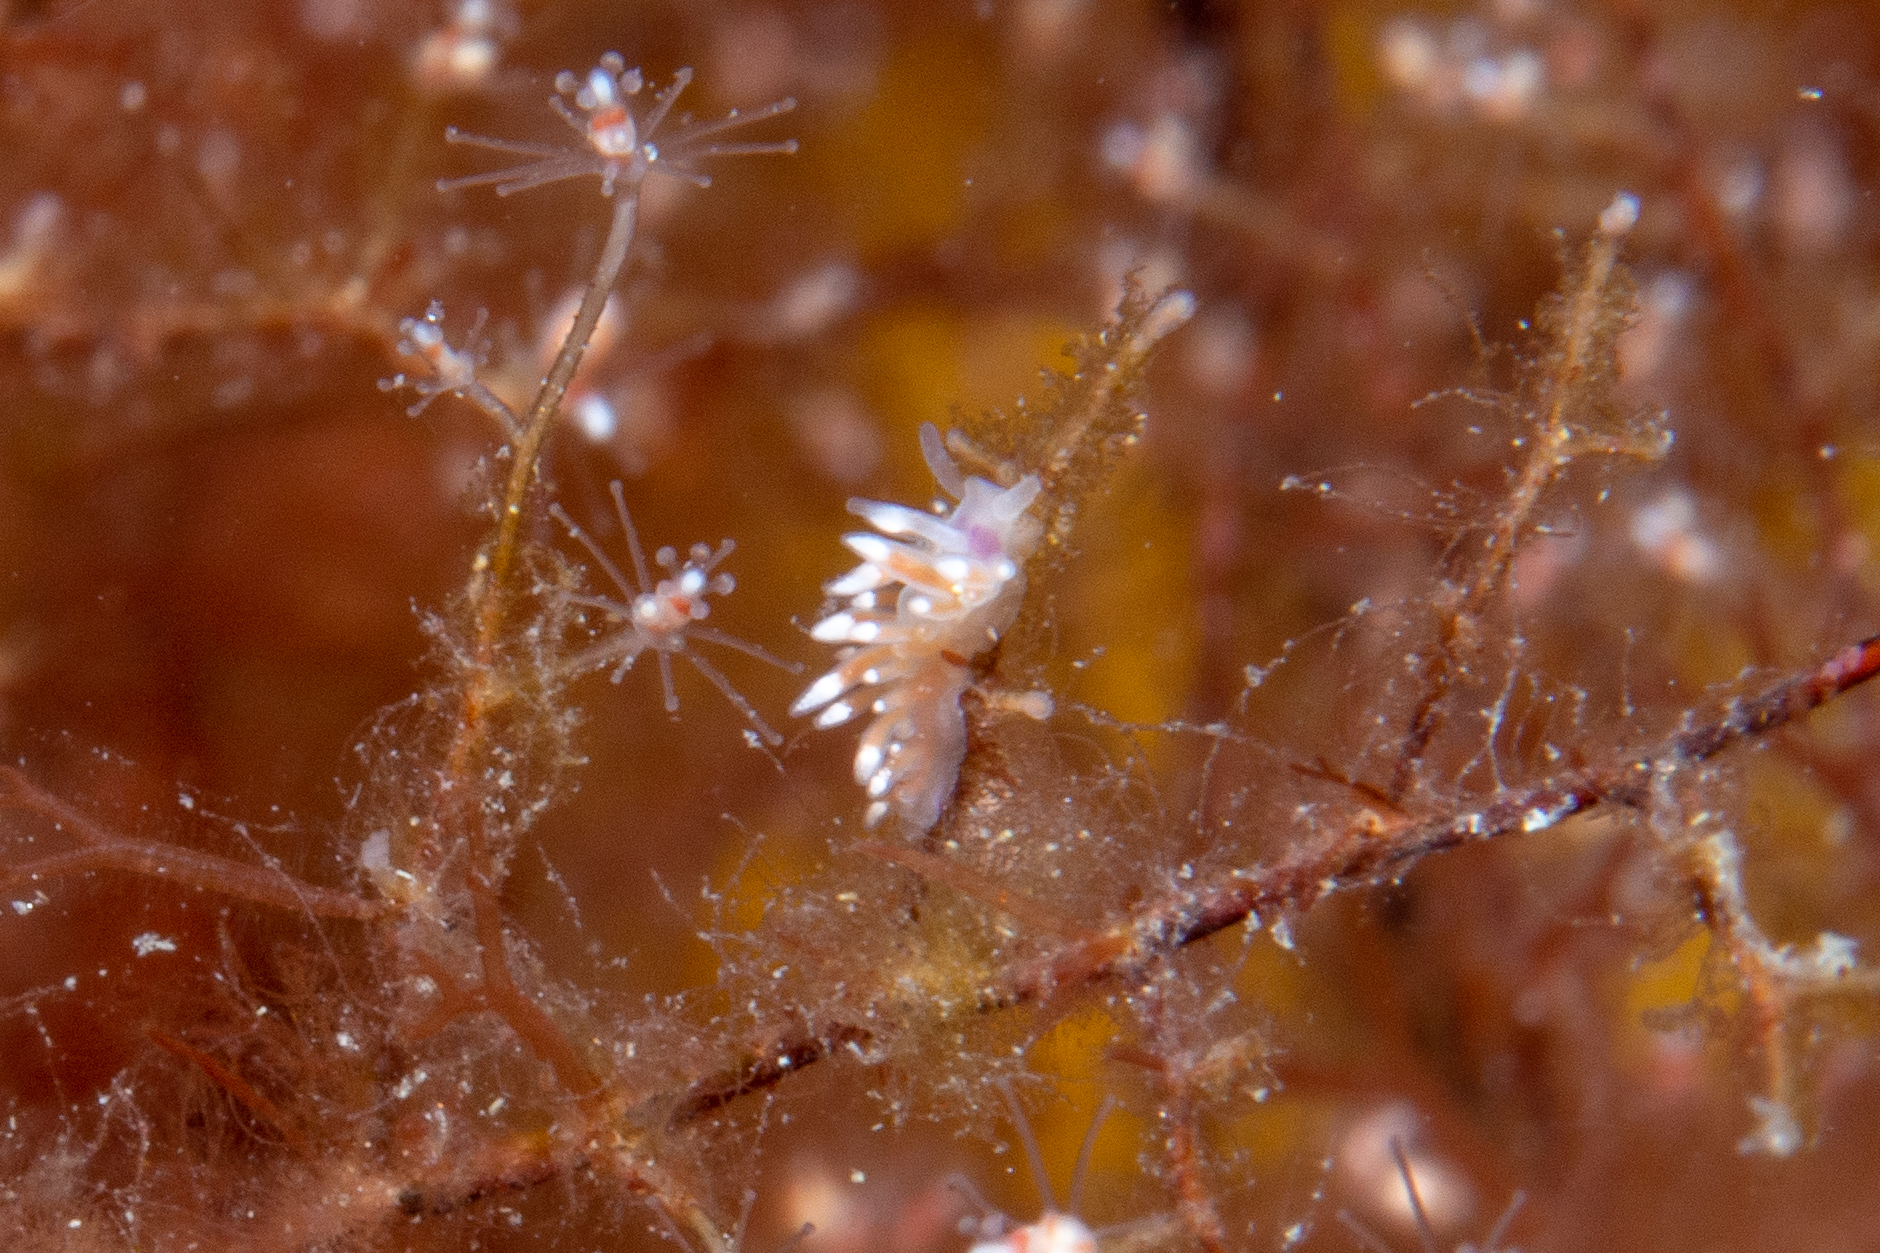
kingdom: Animalia
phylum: Mollusca
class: Gastropoda
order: Nudibranchia
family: Flabellinidae
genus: Coryphellina
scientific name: Coryphellina poenicia
